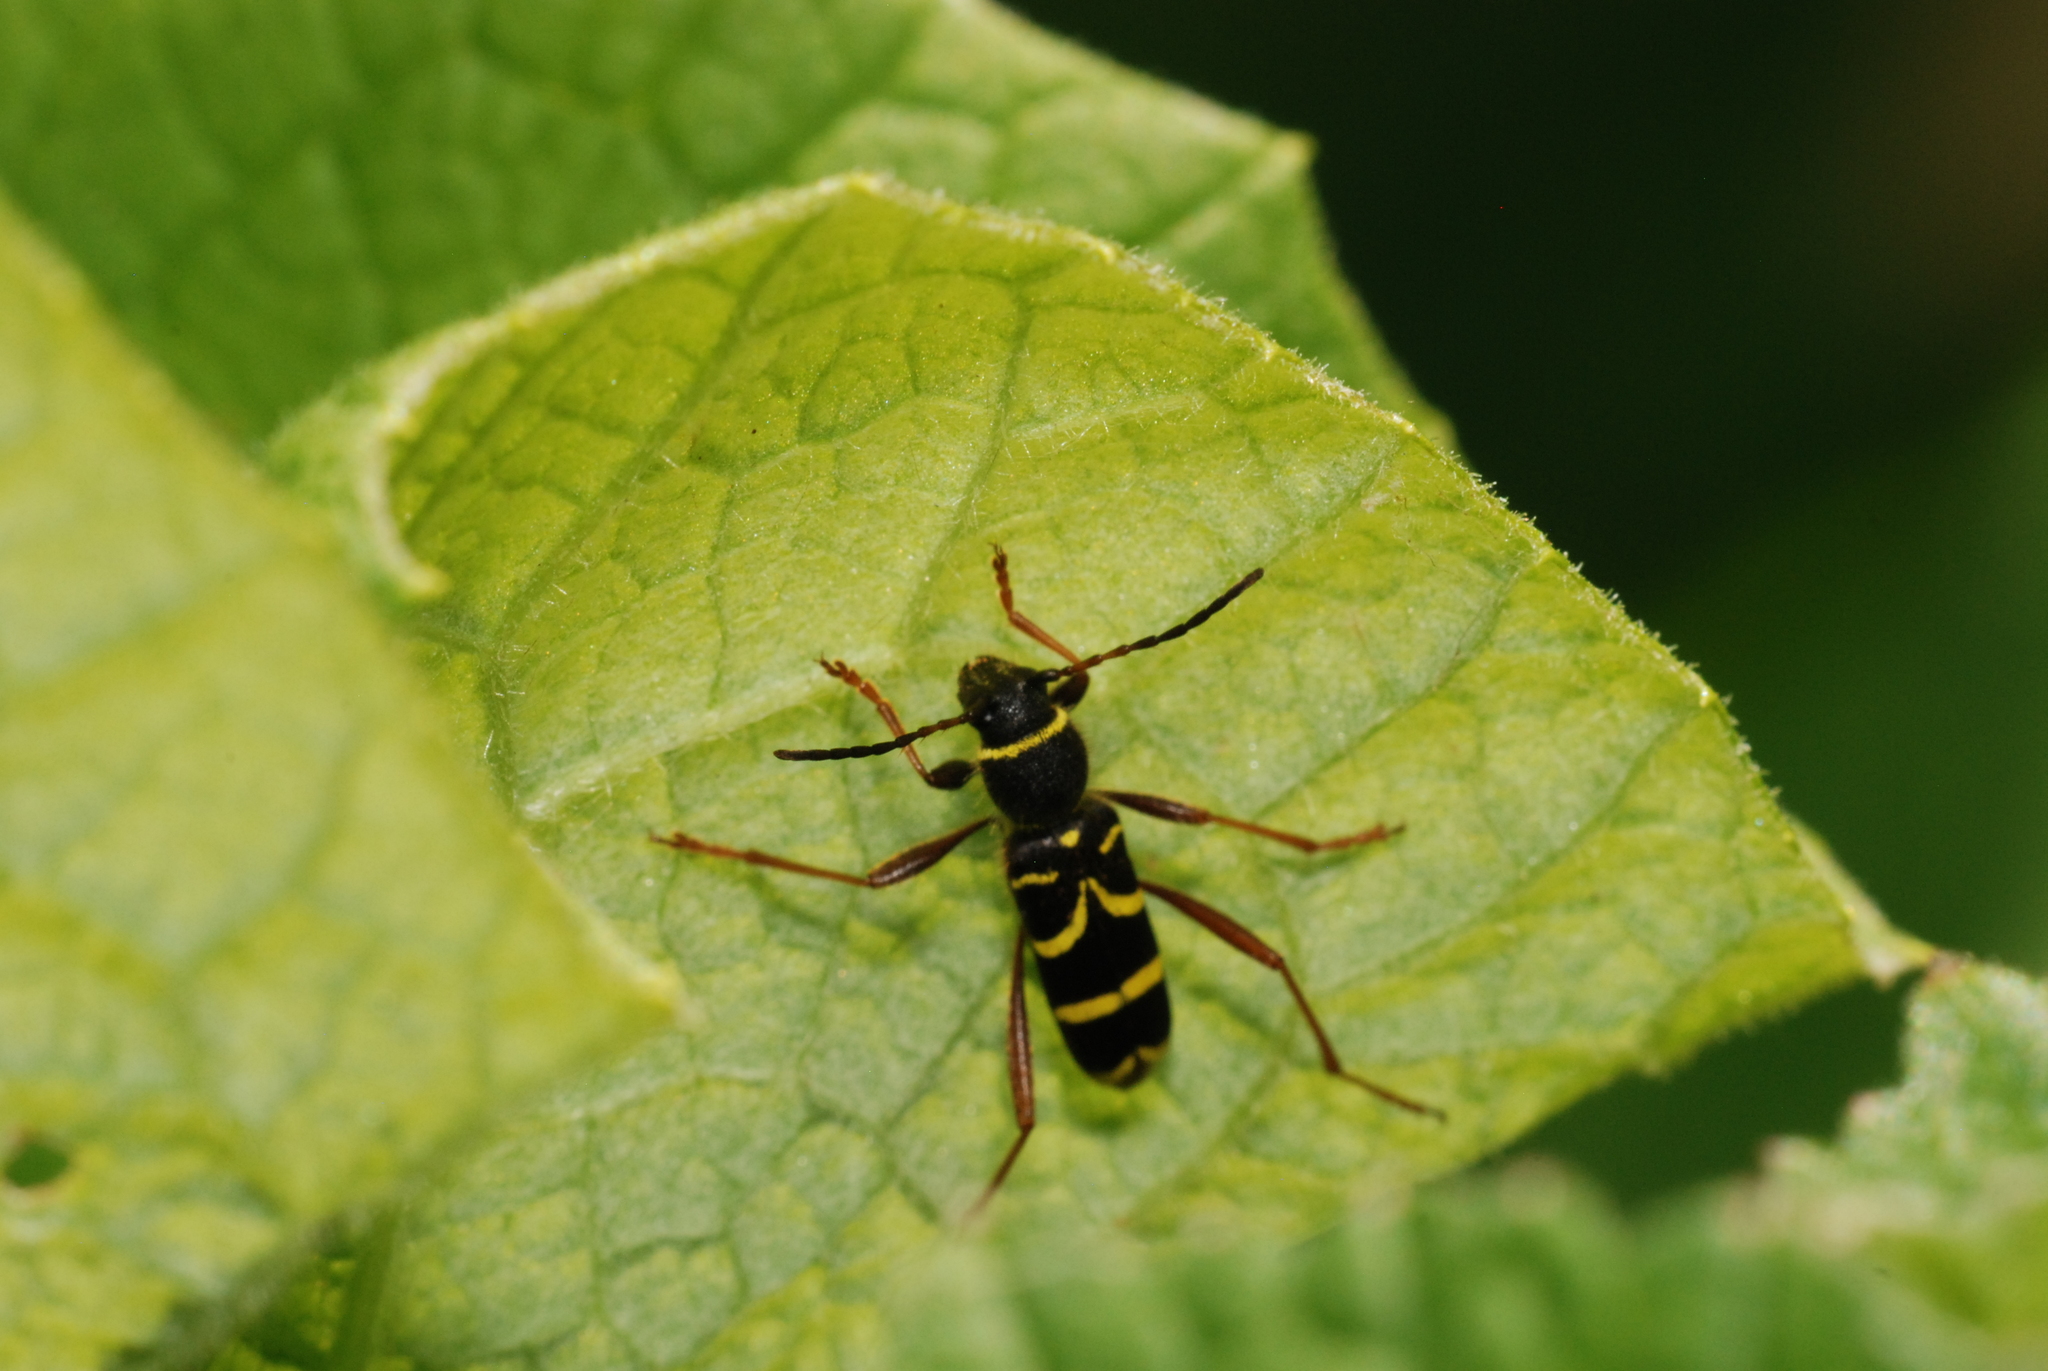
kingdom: Animalia
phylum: Arthropoda
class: Insecta
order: Coleoptera
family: Cerambycidae
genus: Clytus
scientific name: Clytus arietis
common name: Wasp beetle
